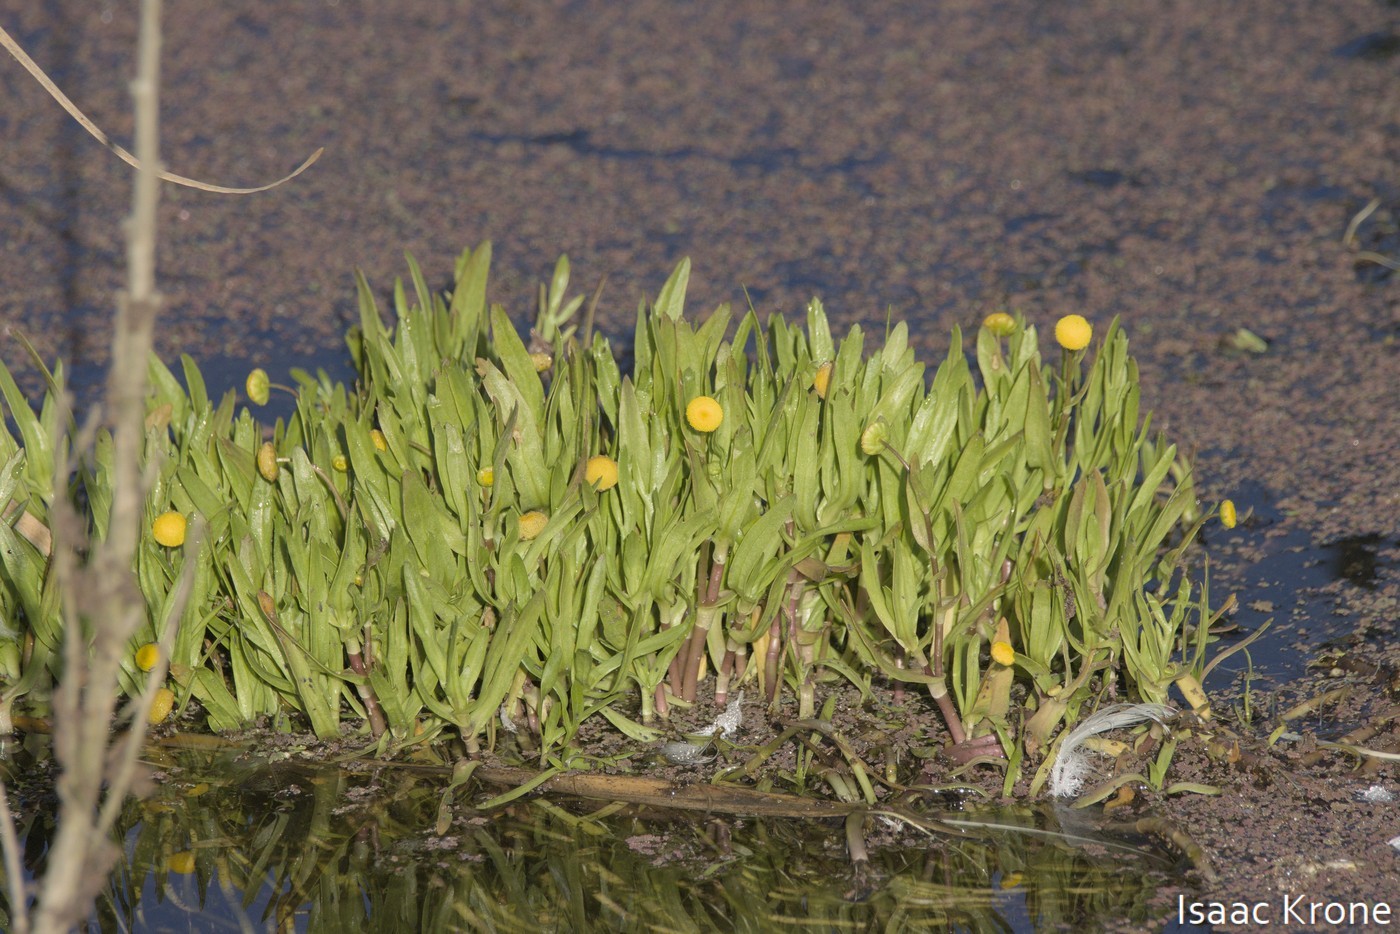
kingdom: Plantae
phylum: Tracheophyta
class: Magnoliopsida
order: Asterales
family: Asteraceae
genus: Cotula
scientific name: Cotula coronopifolia
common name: Buttonweed
